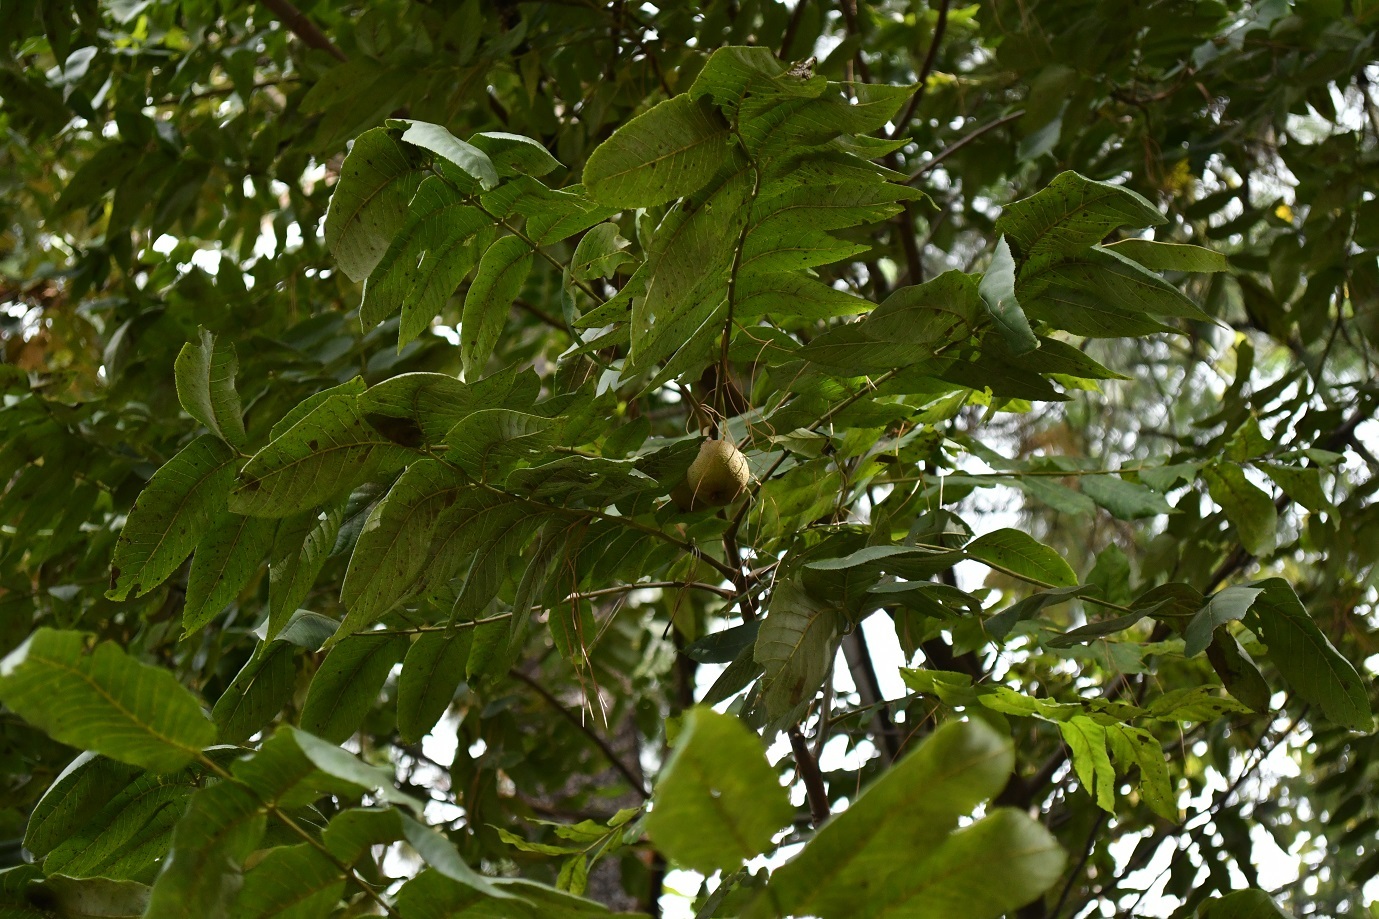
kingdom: Plantae
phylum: Tracheophyta
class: Magnoliopsida
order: Fagales
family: Juglandaceae
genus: Juglans
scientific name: Juglans olanchana
